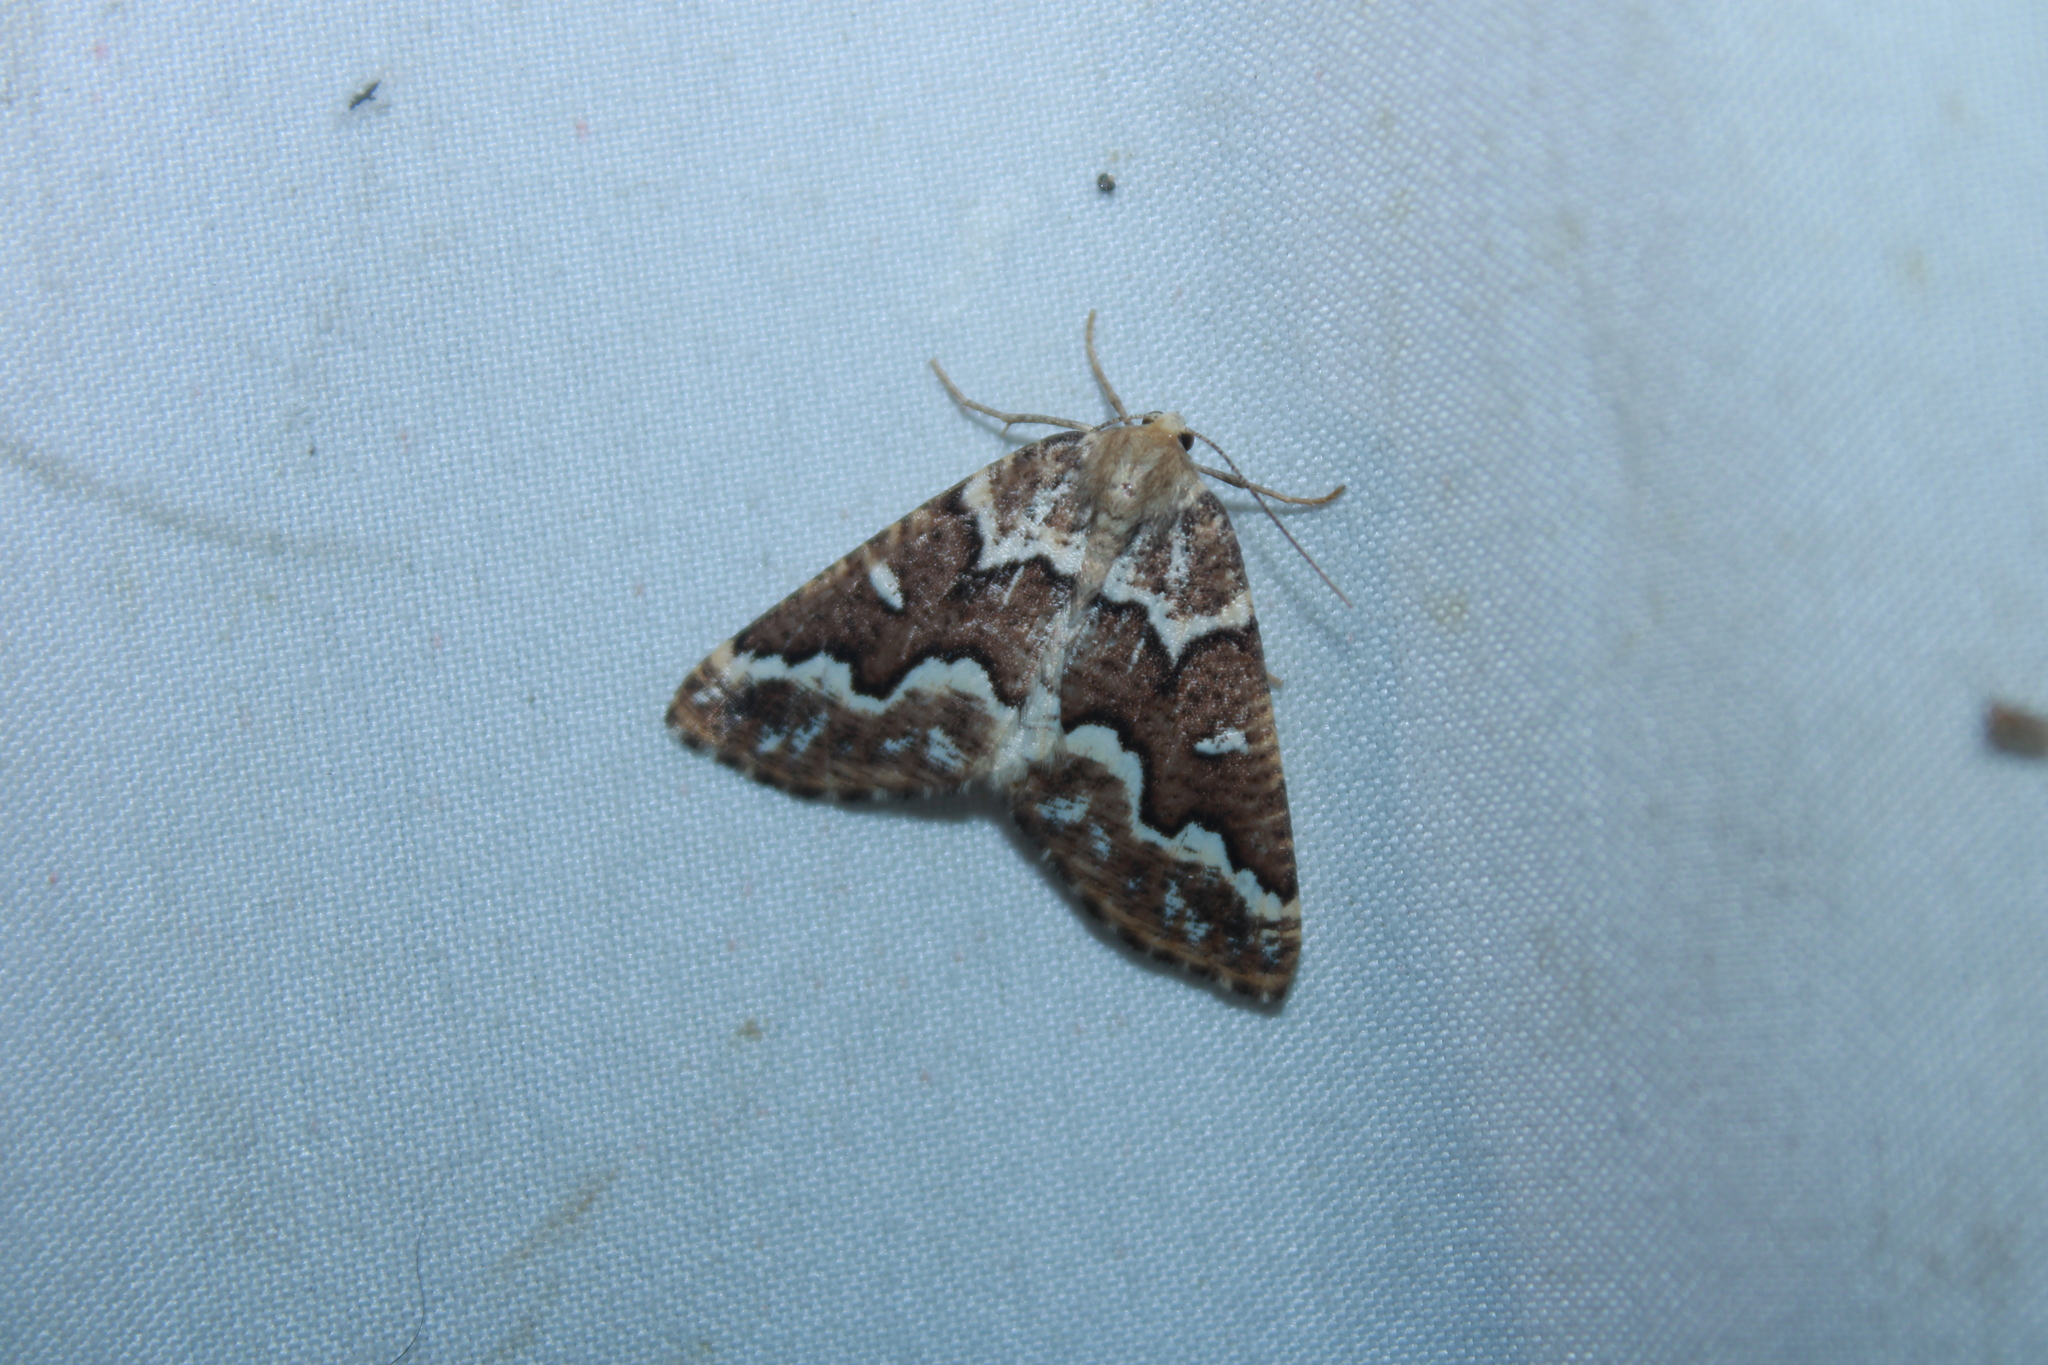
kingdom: Animalia
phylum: Arthropoda
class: Insecta
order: Lepidoptera
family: Geometridae
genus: Caripeta
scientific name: Caripeta divisata
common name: Gray spruce looper
